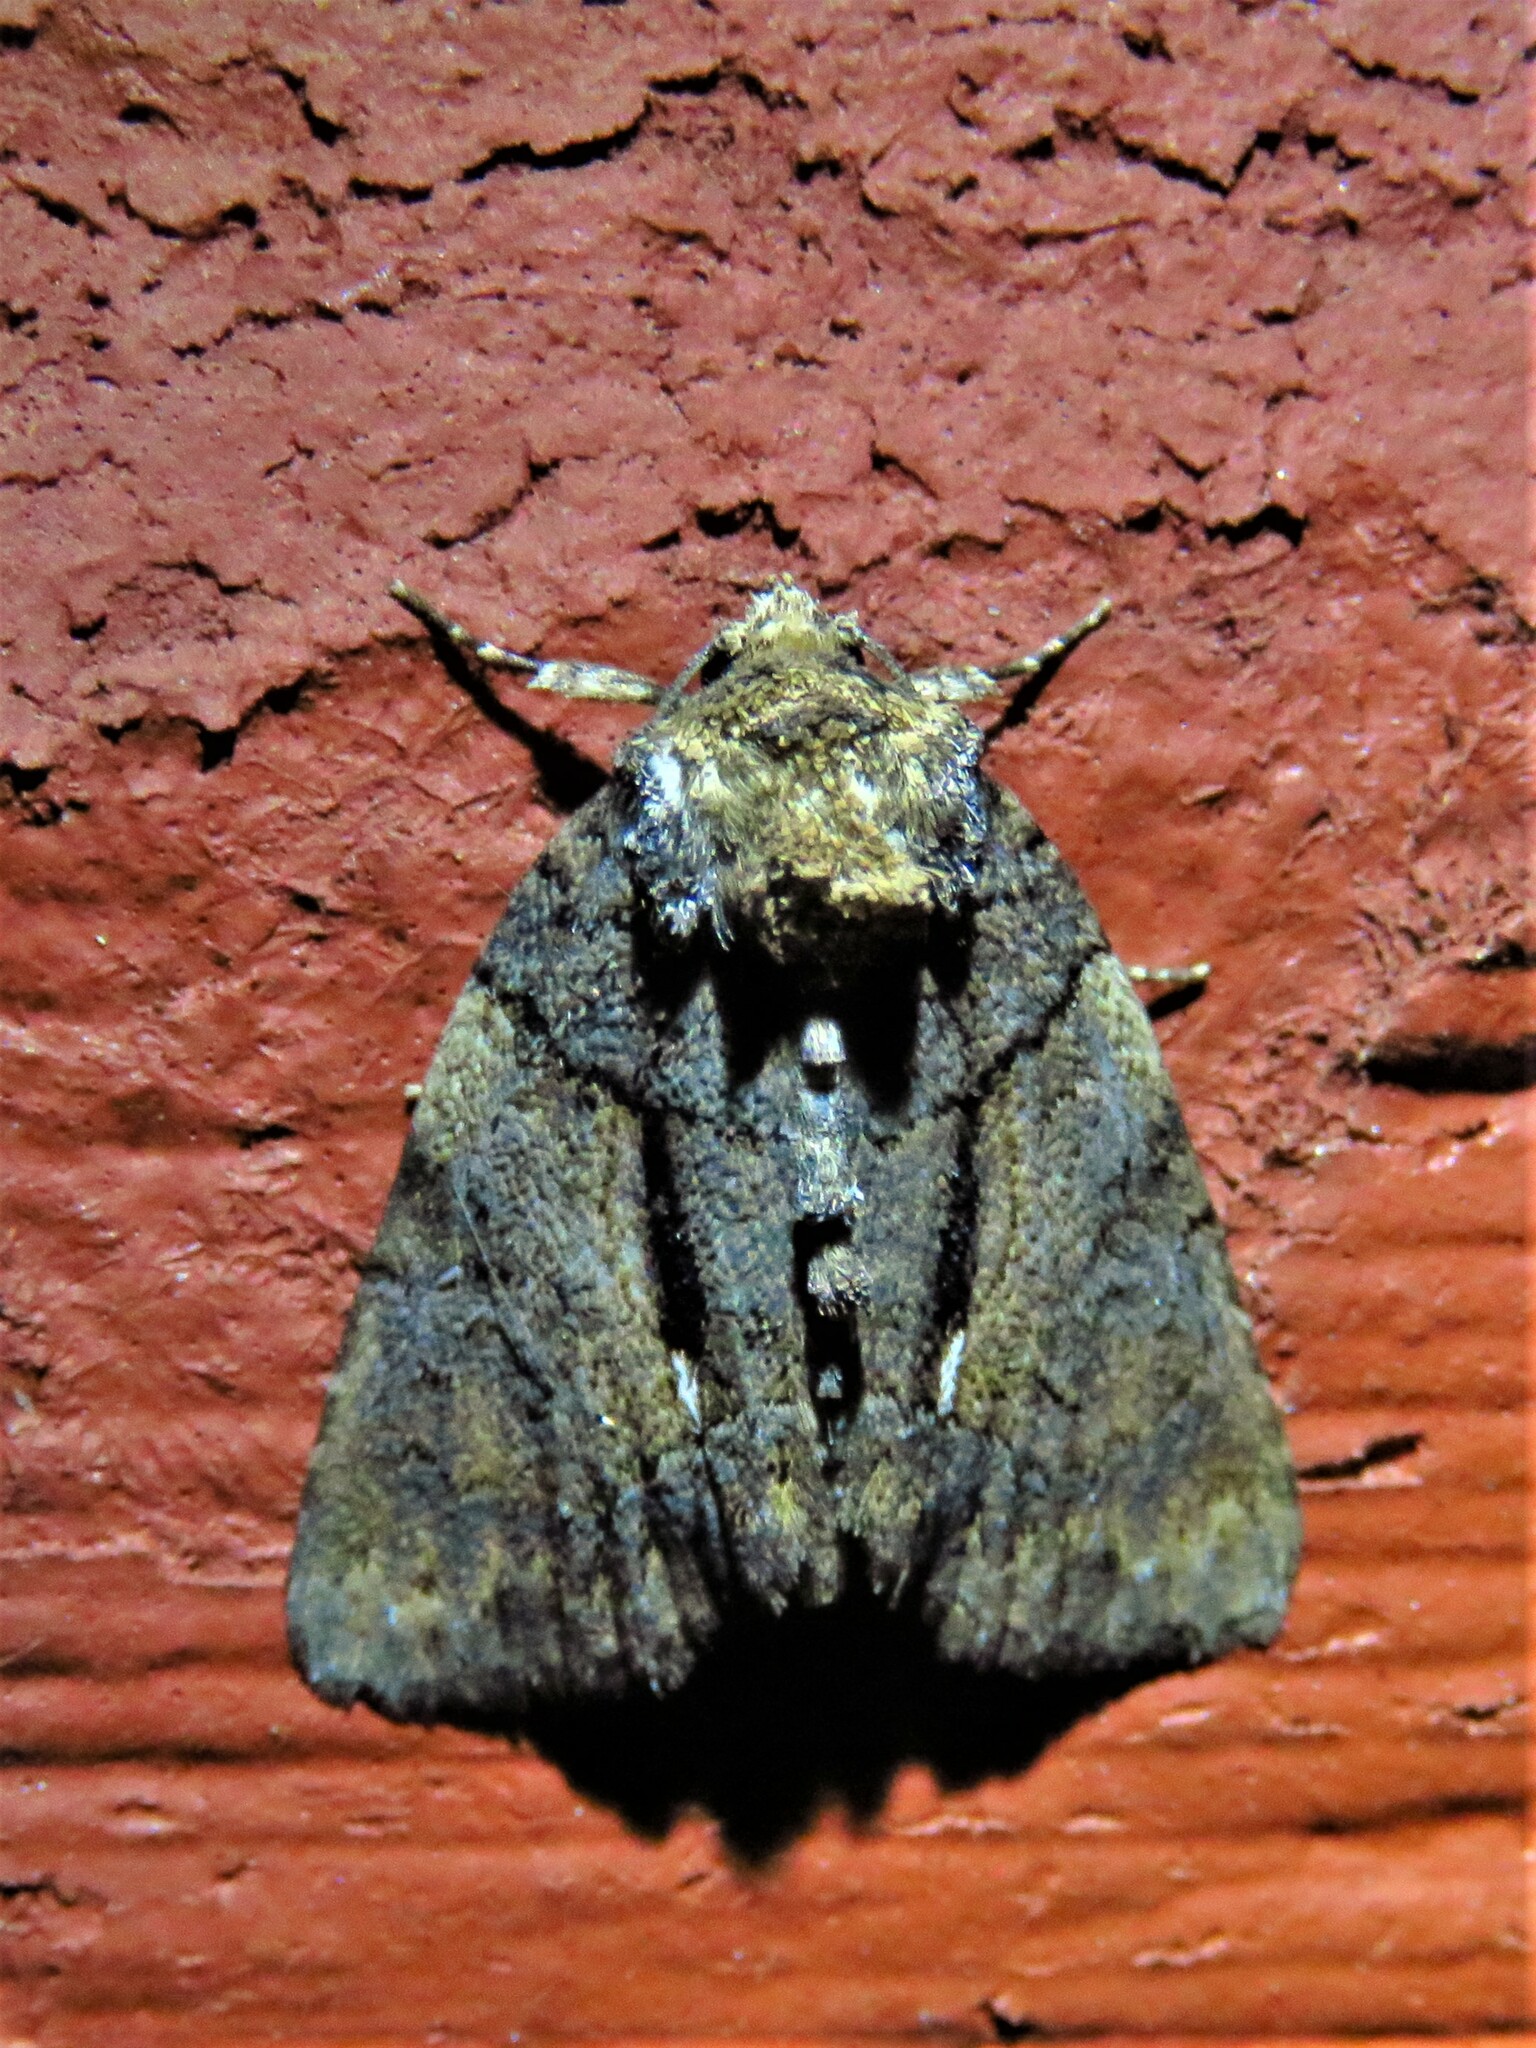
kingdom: Animalia
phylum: Arthropoda
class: Insecta
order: Lepidoptera
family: Noctuidae
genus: Chytonix
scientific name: Chytonix palliatricula
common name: Cloaked marvel
